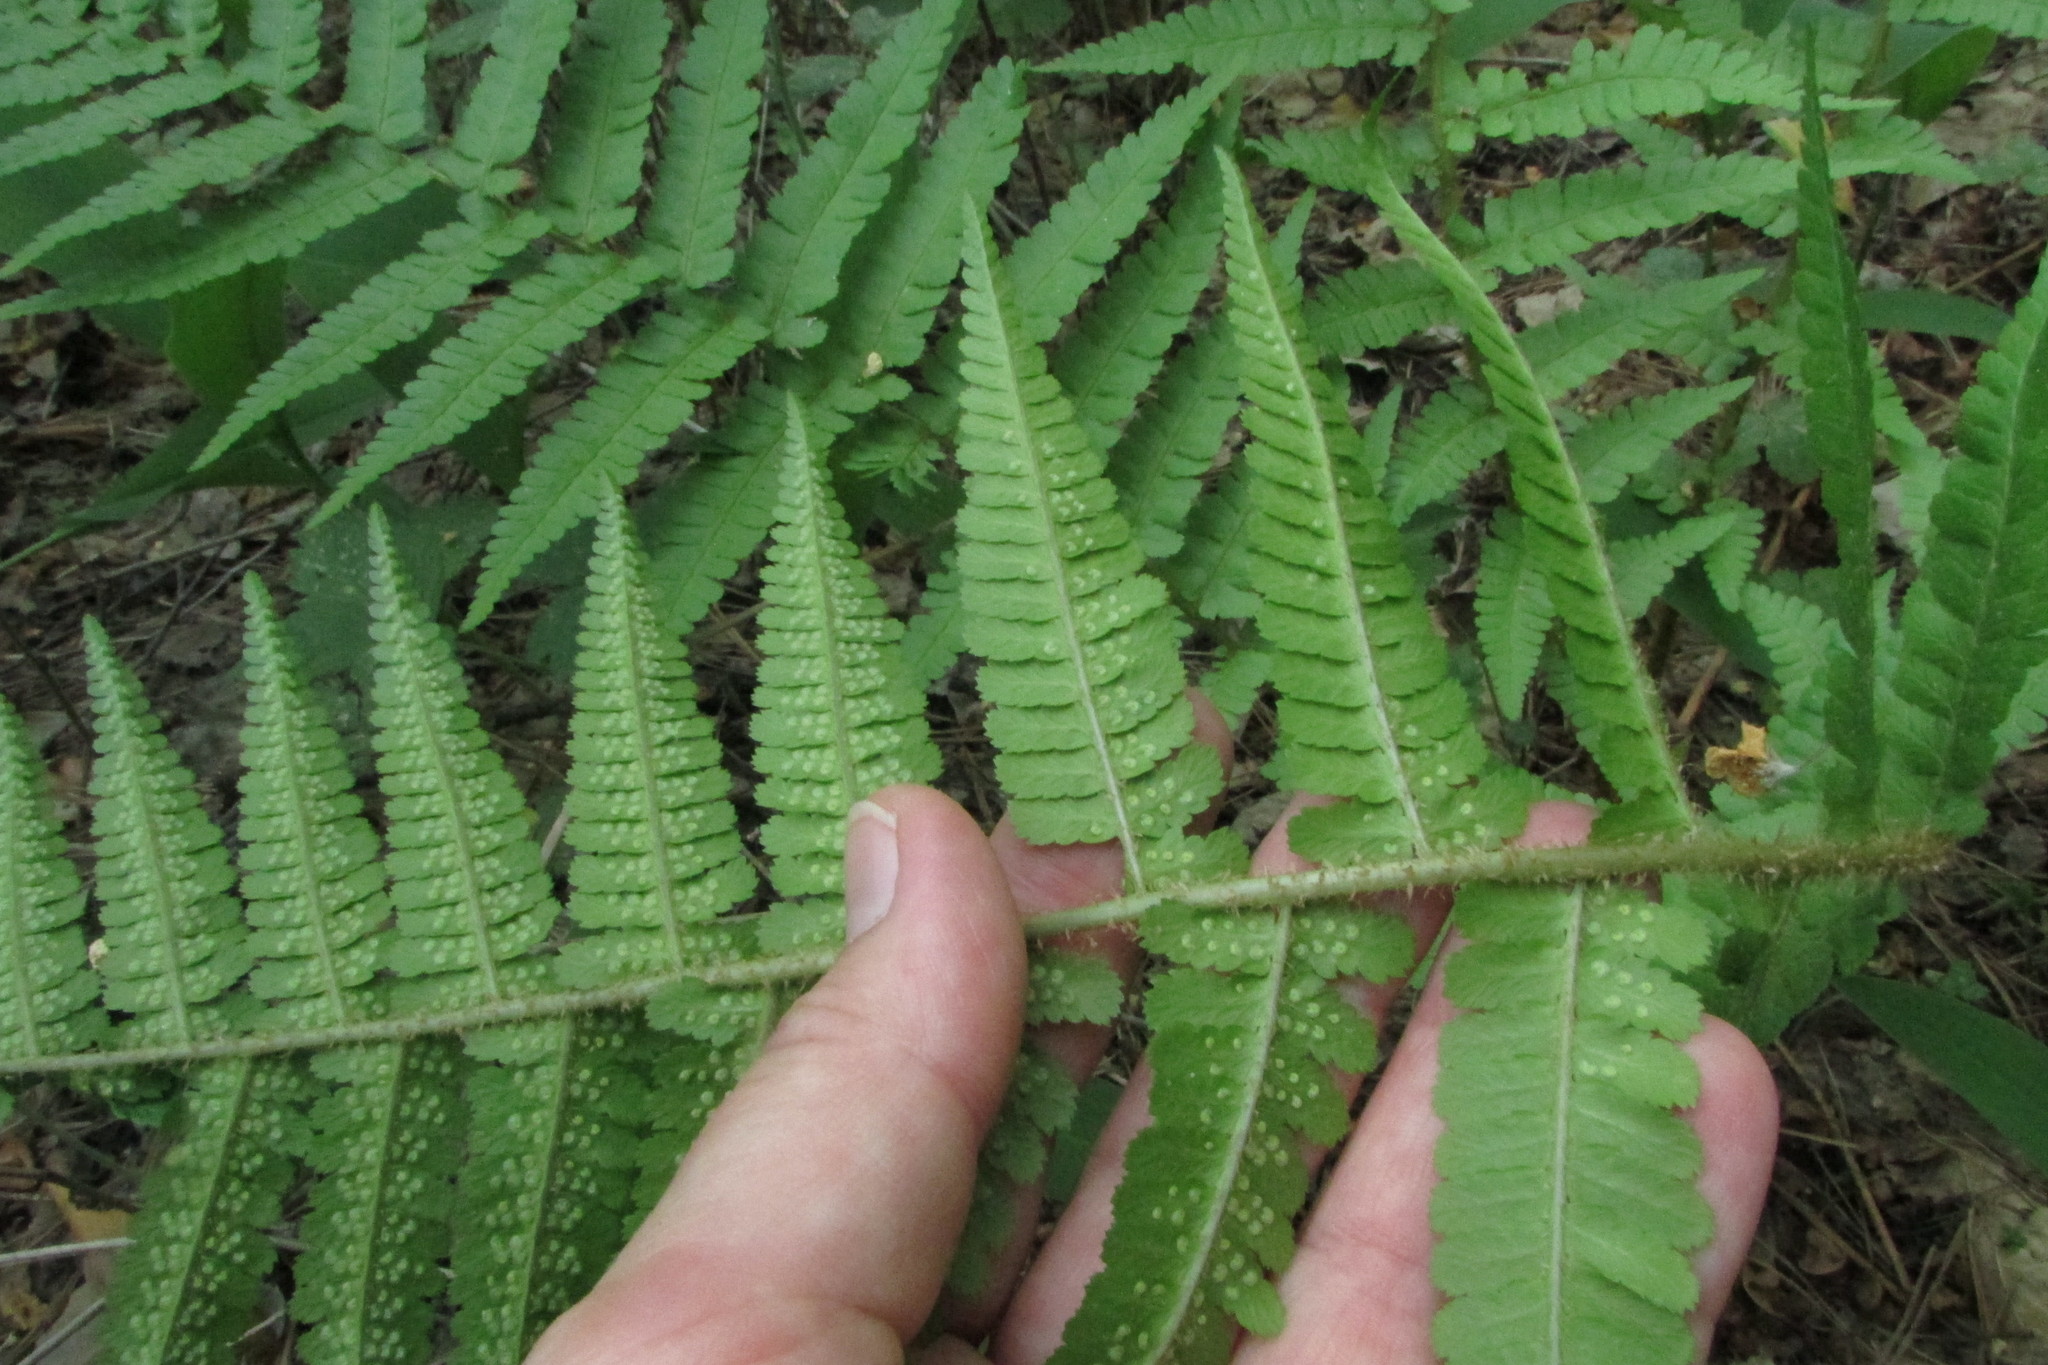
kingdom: Plantae
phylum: Tracheophyta
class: Polypodiopsida
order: Polypodiales
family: Dryopteridaceae
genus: Dryopteris
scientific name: Dryopteris filix-mas
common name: Male fern
